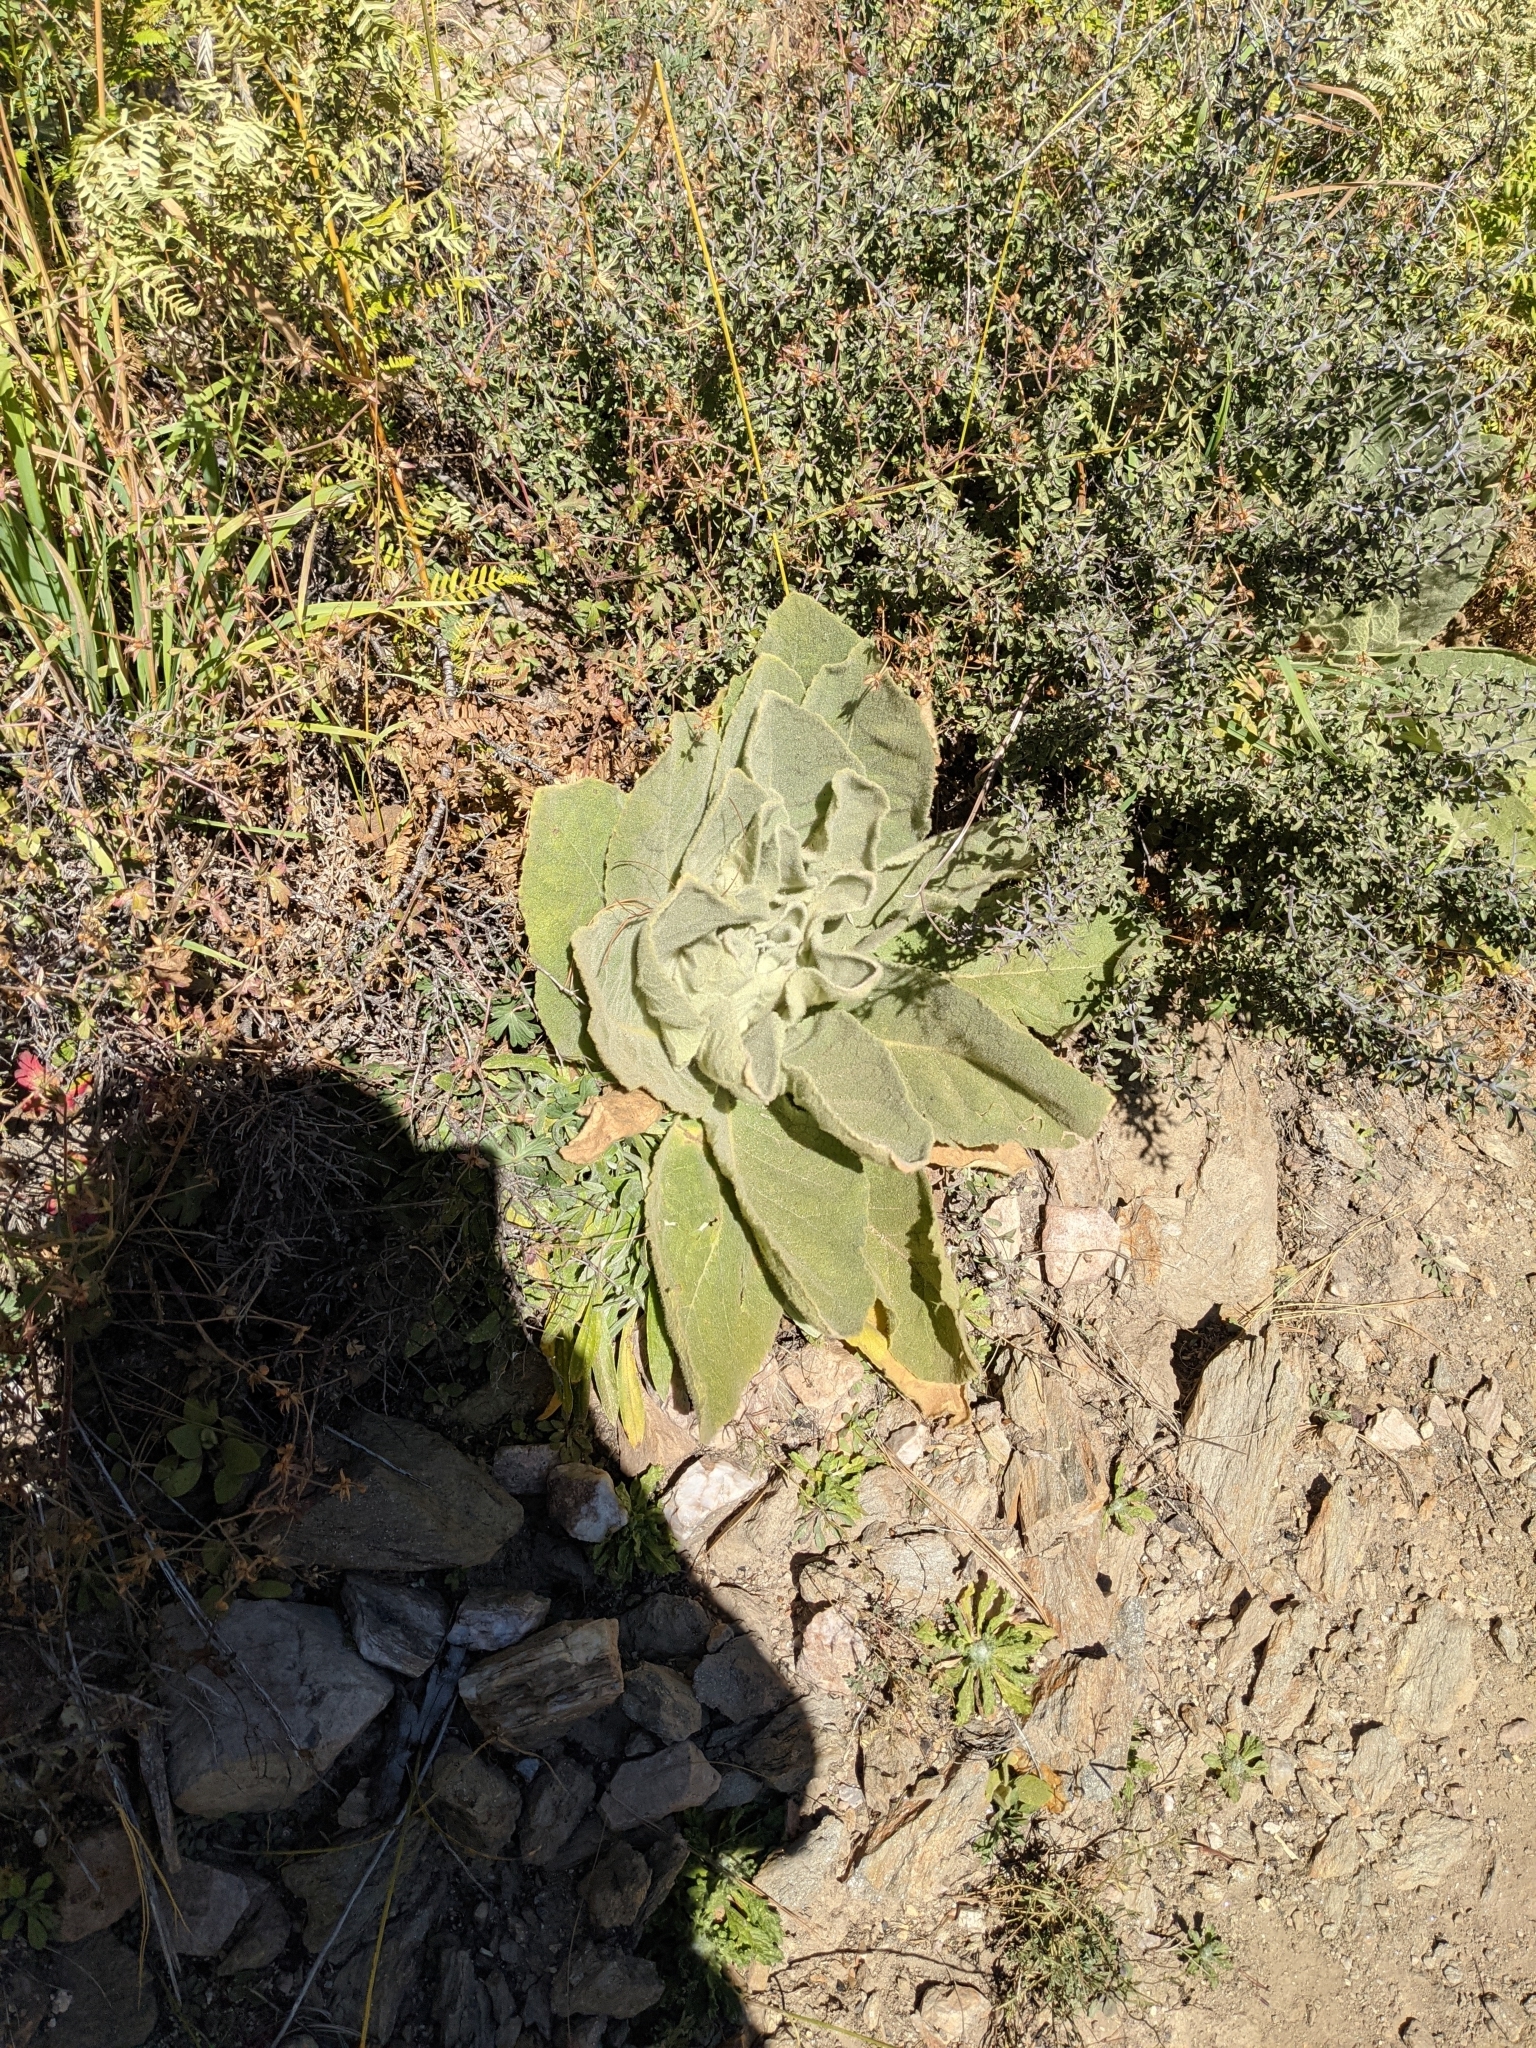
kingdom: Plantae
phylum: Tracheophyta
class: Magnoliopsida
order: Lamiales
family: Scrophulariaceae
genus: Verbascum
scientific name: Verbascum thapsus
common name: Common mullein
